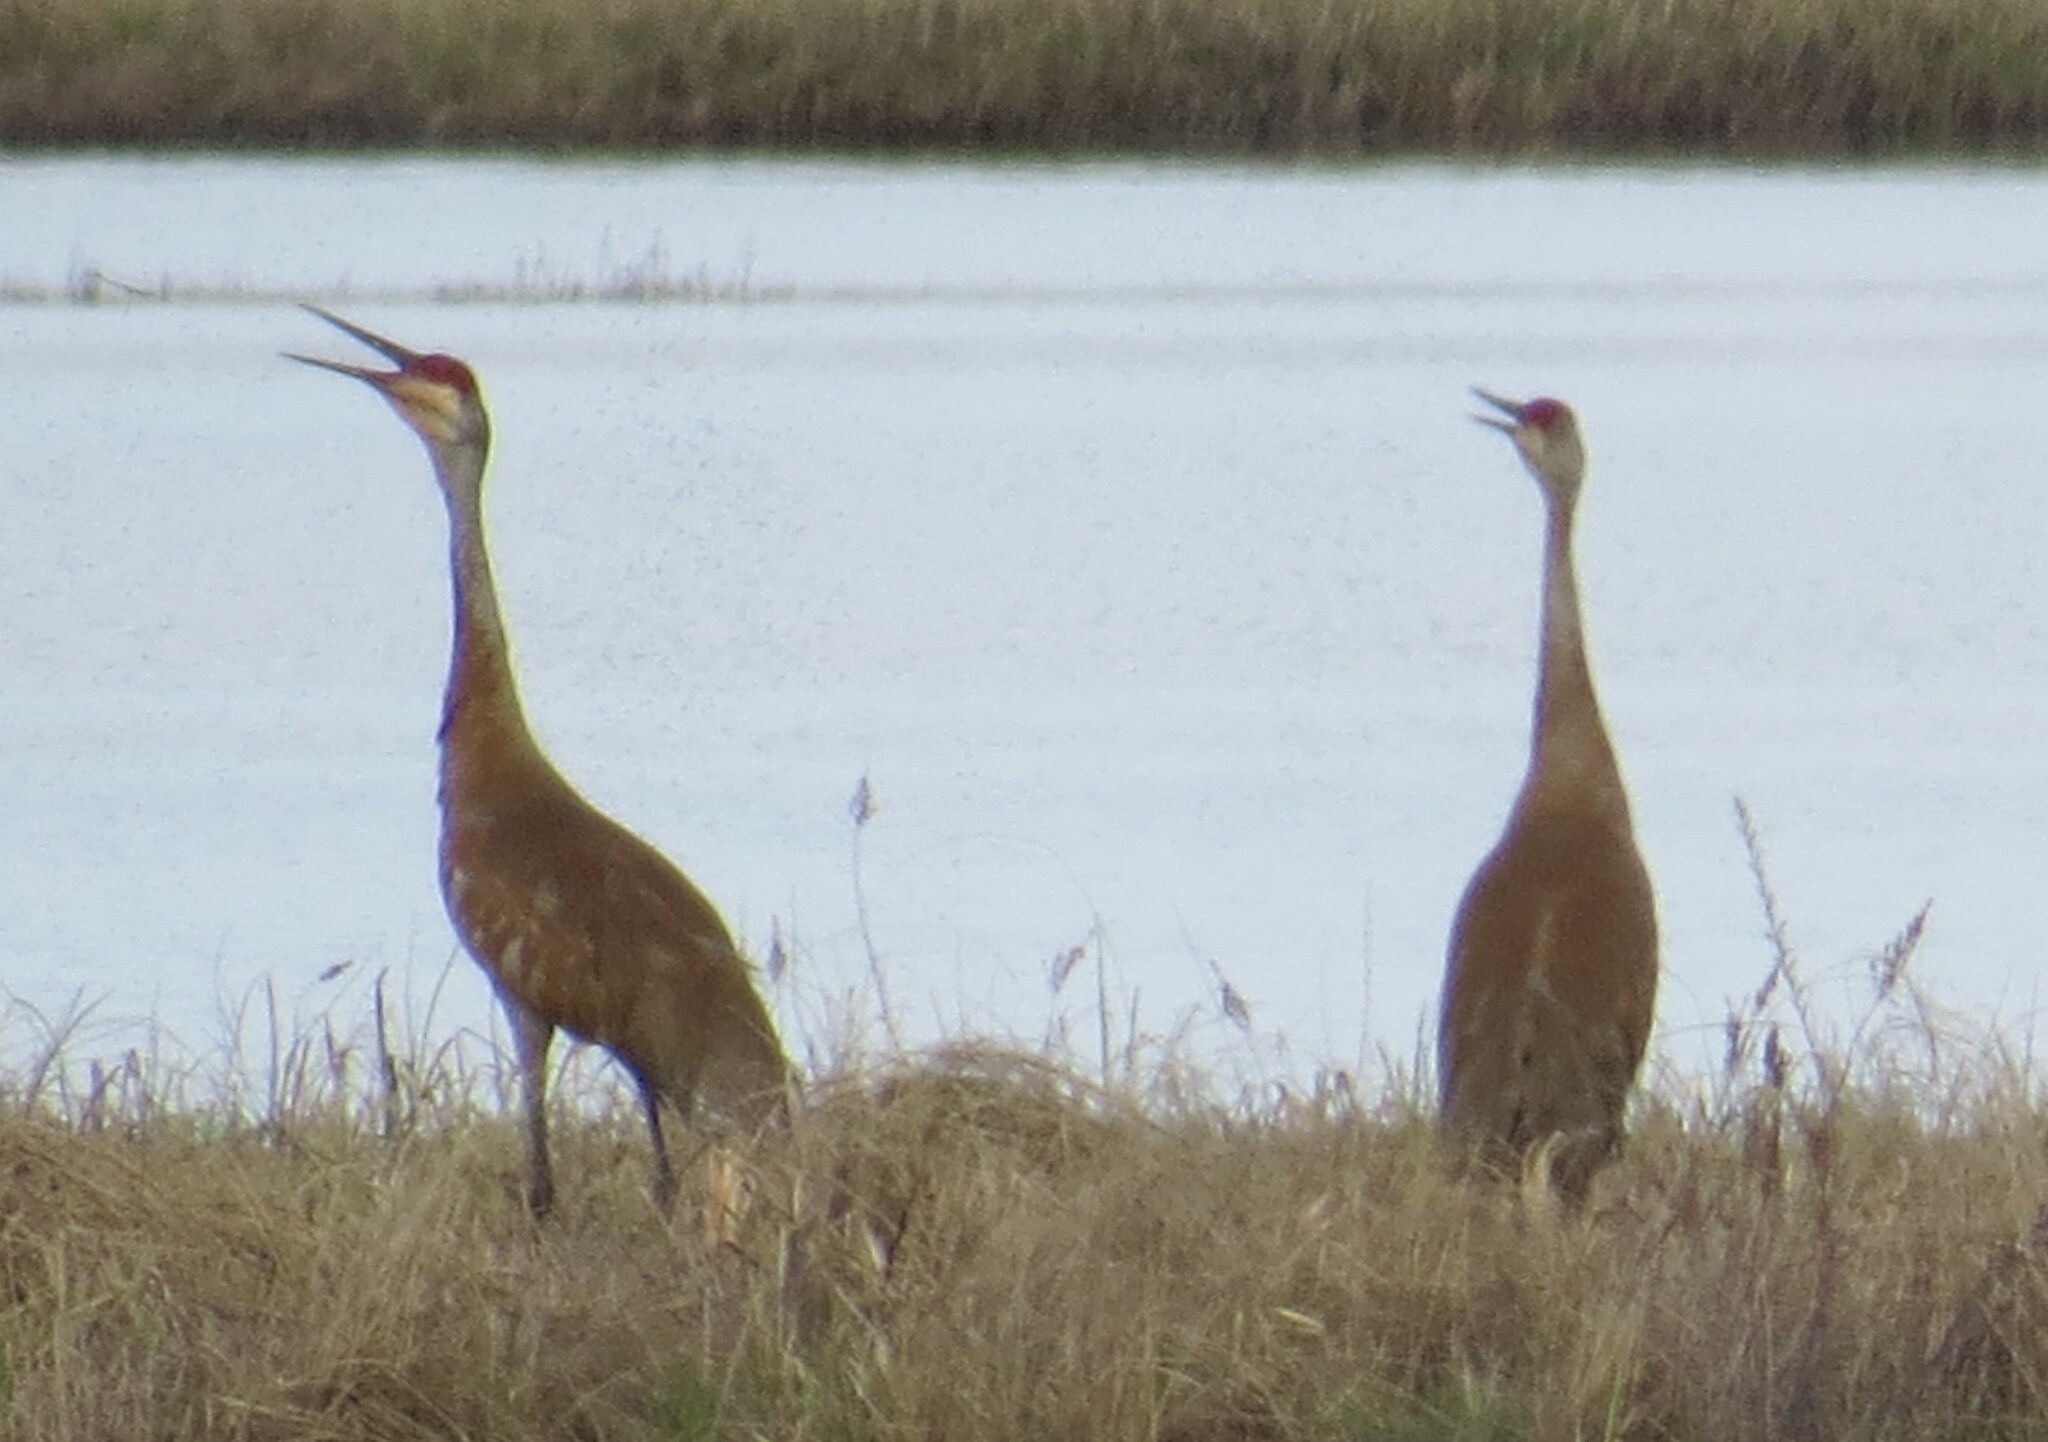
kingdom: Animalia
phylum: Chordata
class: Aves
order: Gruiformes
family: Gruidae
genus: Grus
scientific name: Grus canadensis
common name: Sandhill crane
